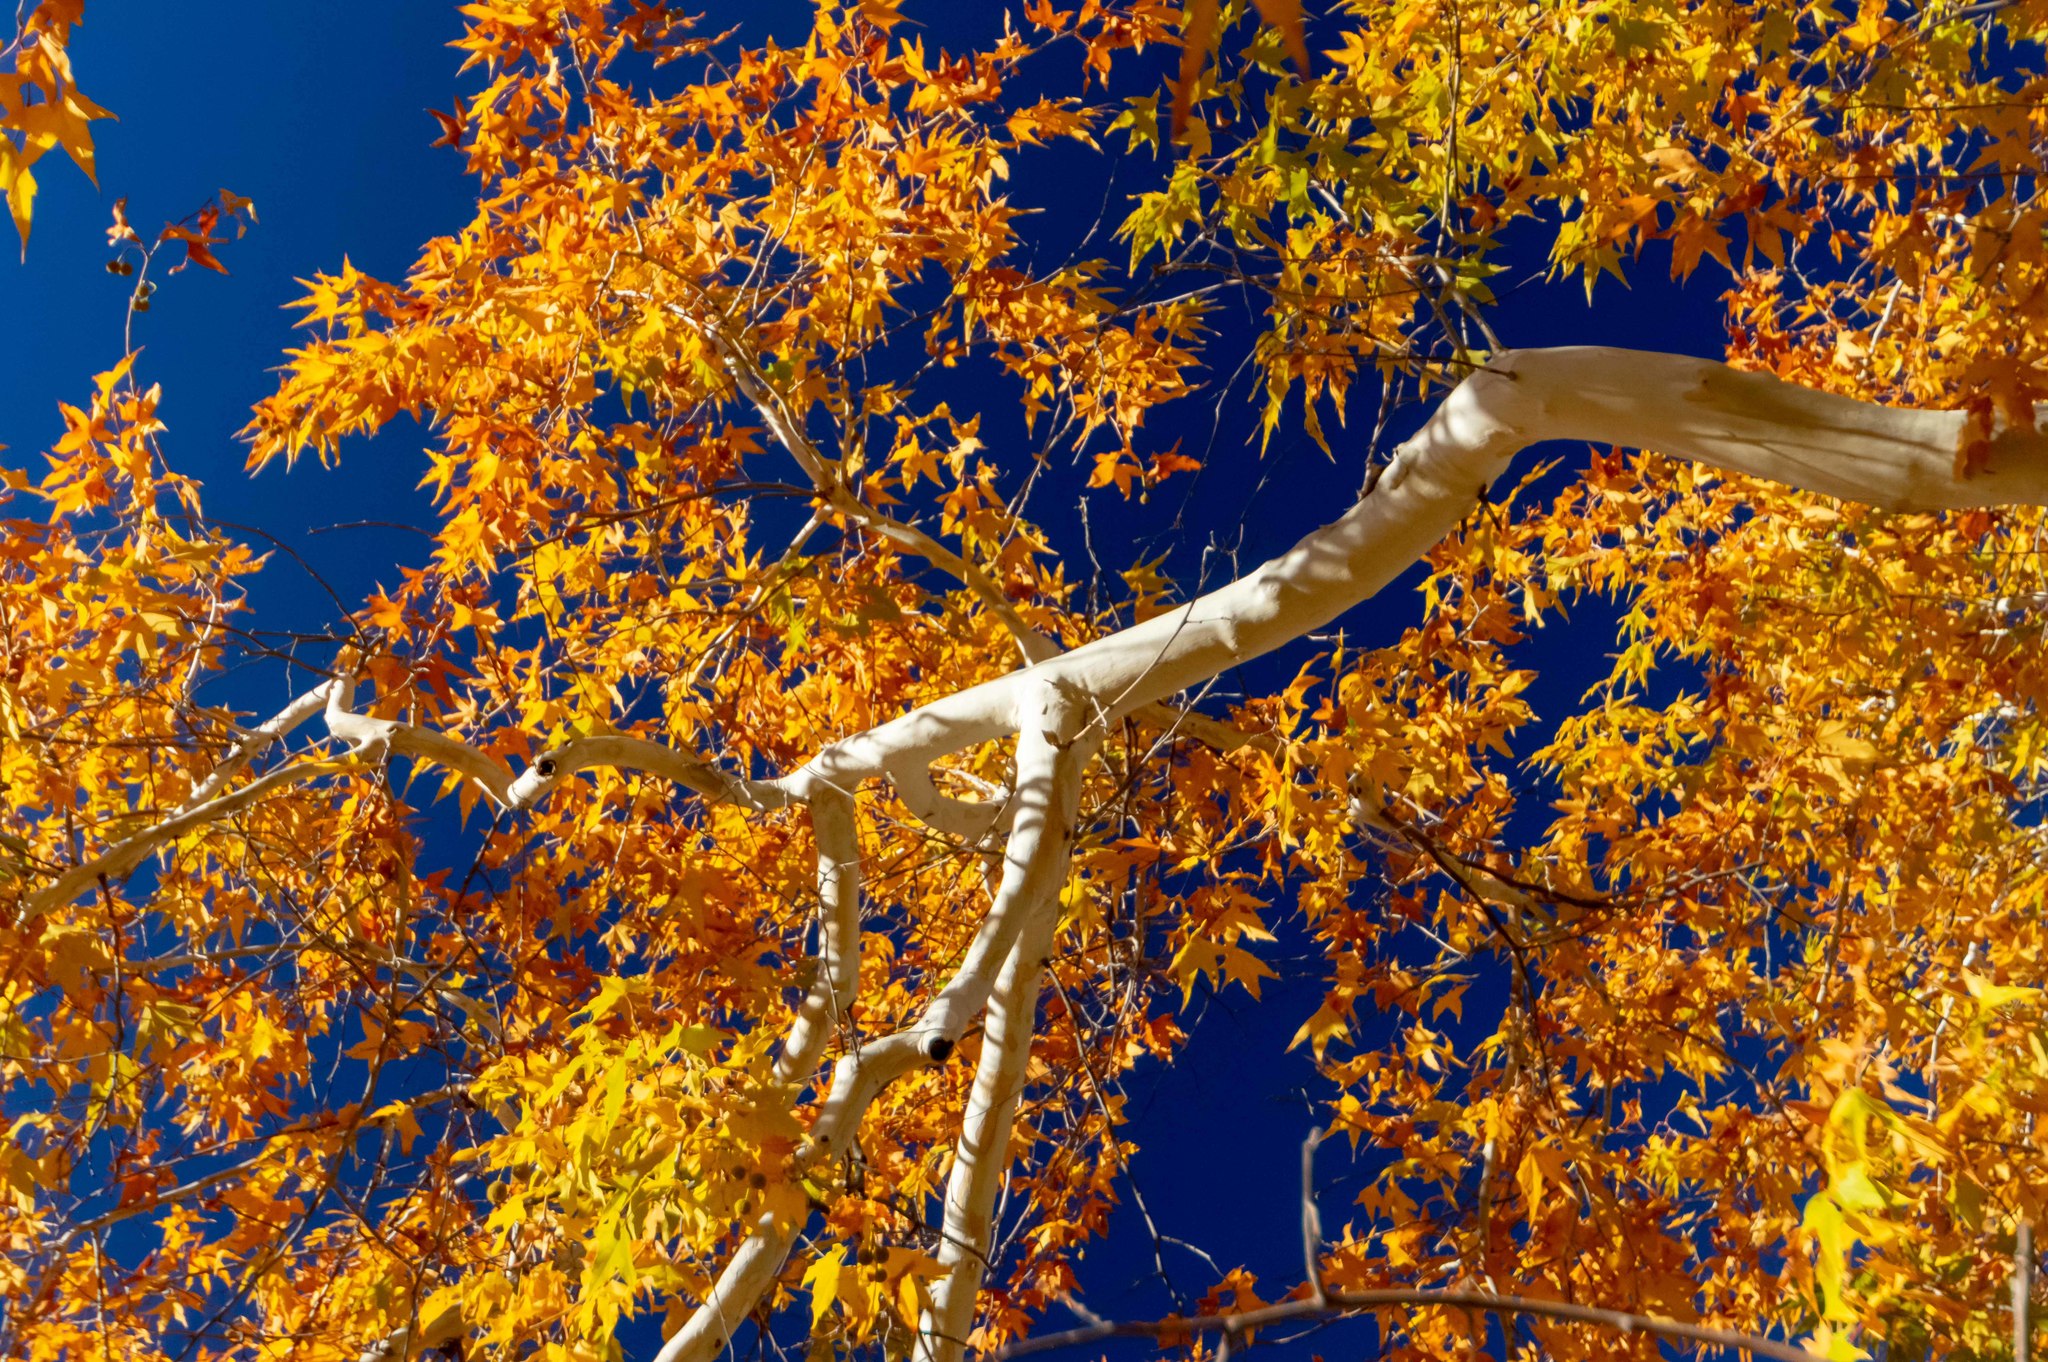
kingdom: Plantae
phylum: Tracheophyta
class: Magnoliopsida
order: Proteales
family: Platanaceae
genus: Platanus
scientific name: Platanus wrightii
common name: Arizona sycamore
